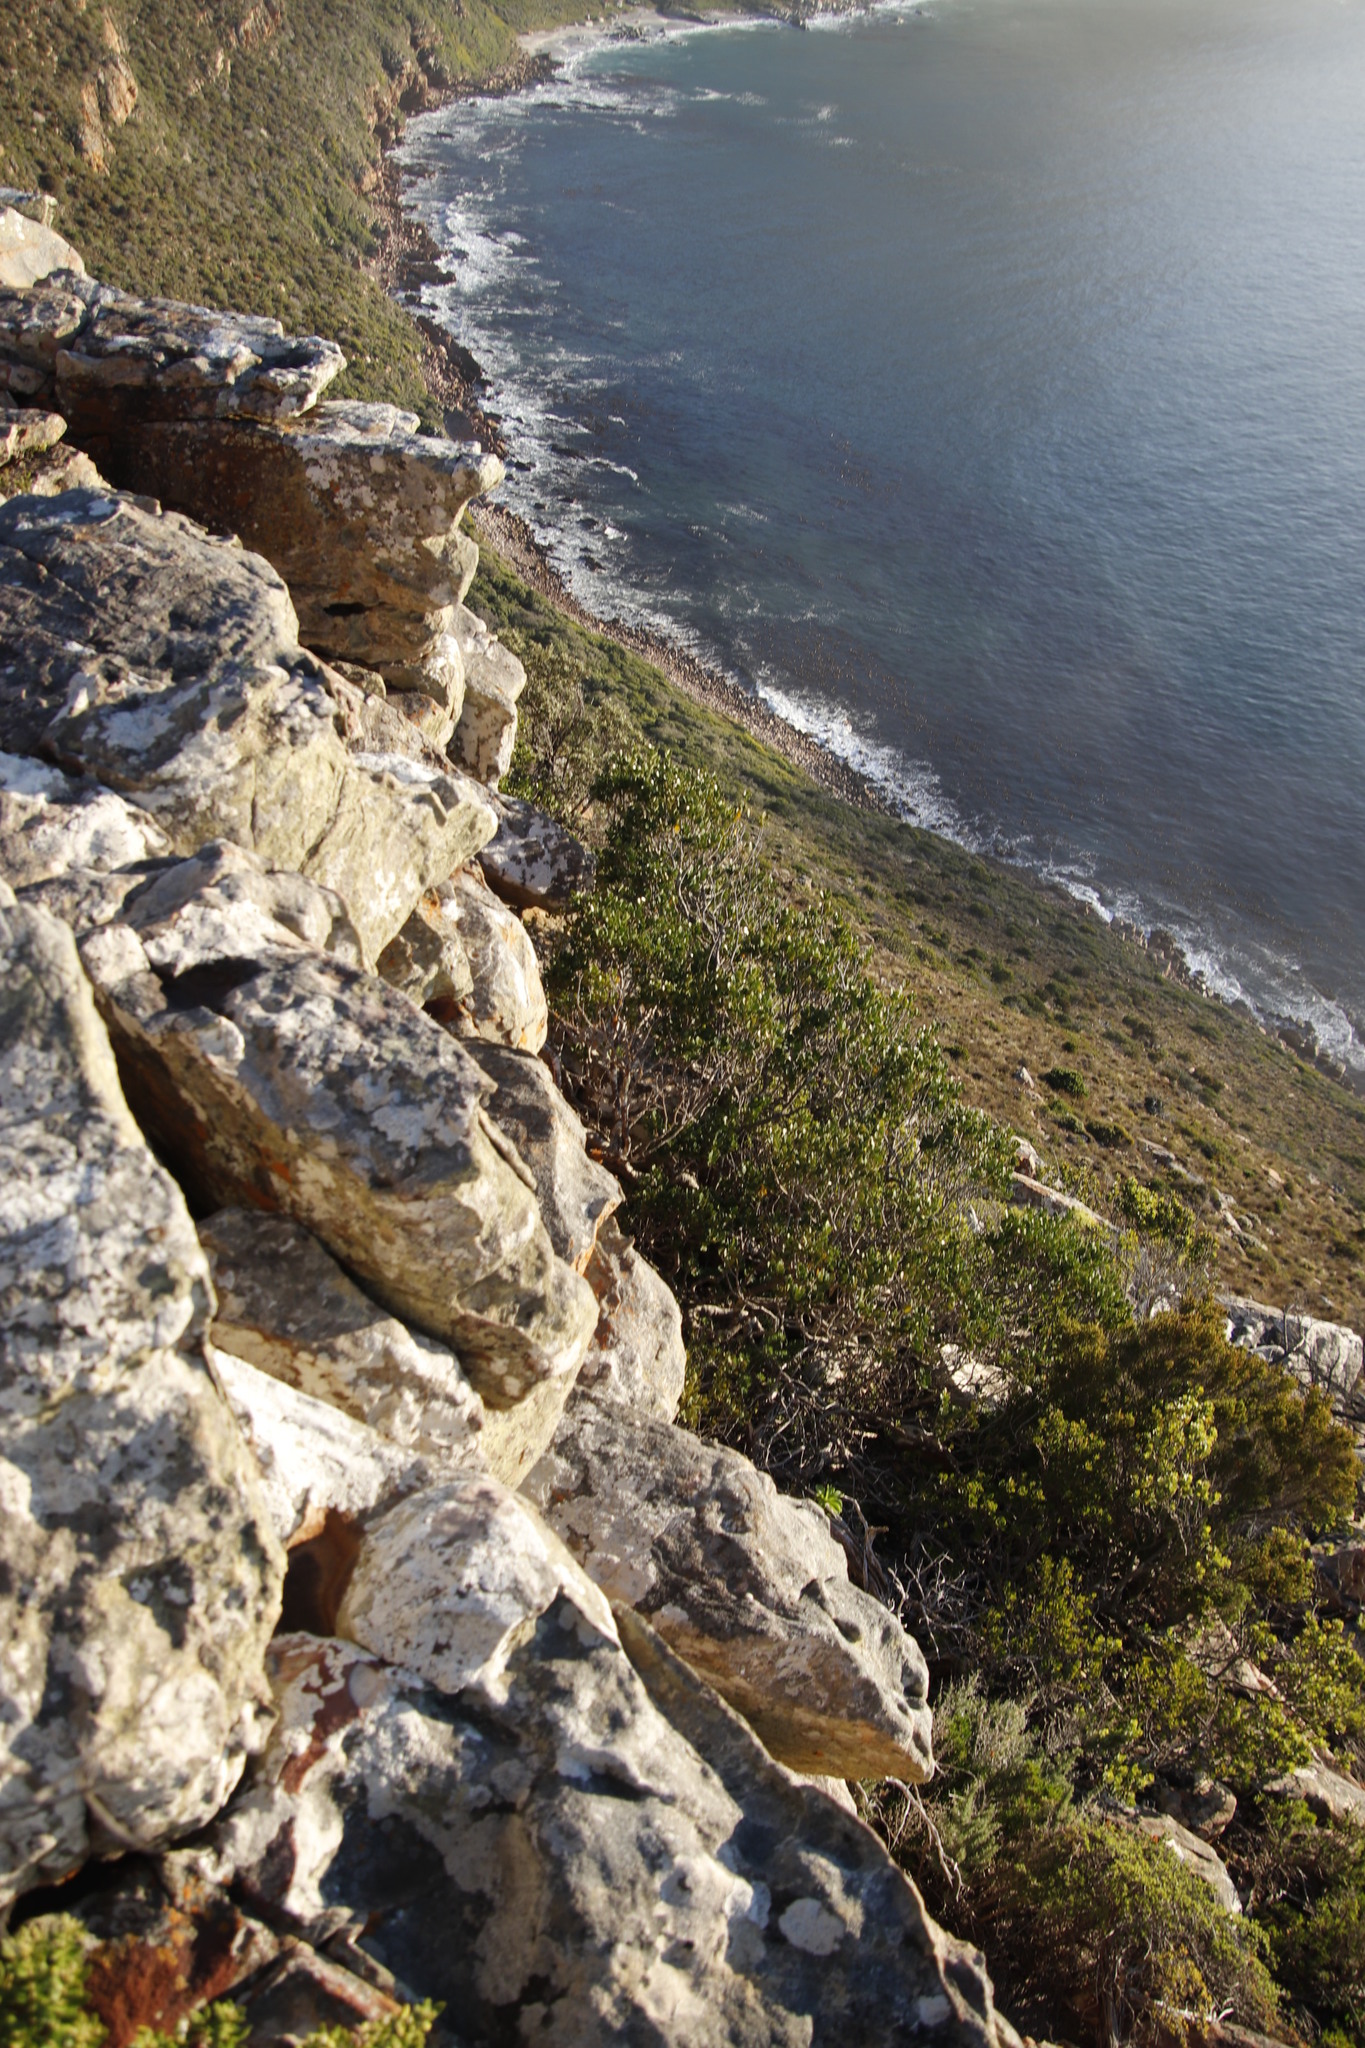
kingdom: Plantae
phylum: Tracheophyta
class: Magnoliopsida
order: Celastrales
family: Celastraceae
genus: Gymnosporia
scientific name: Gymnosporia lucida
